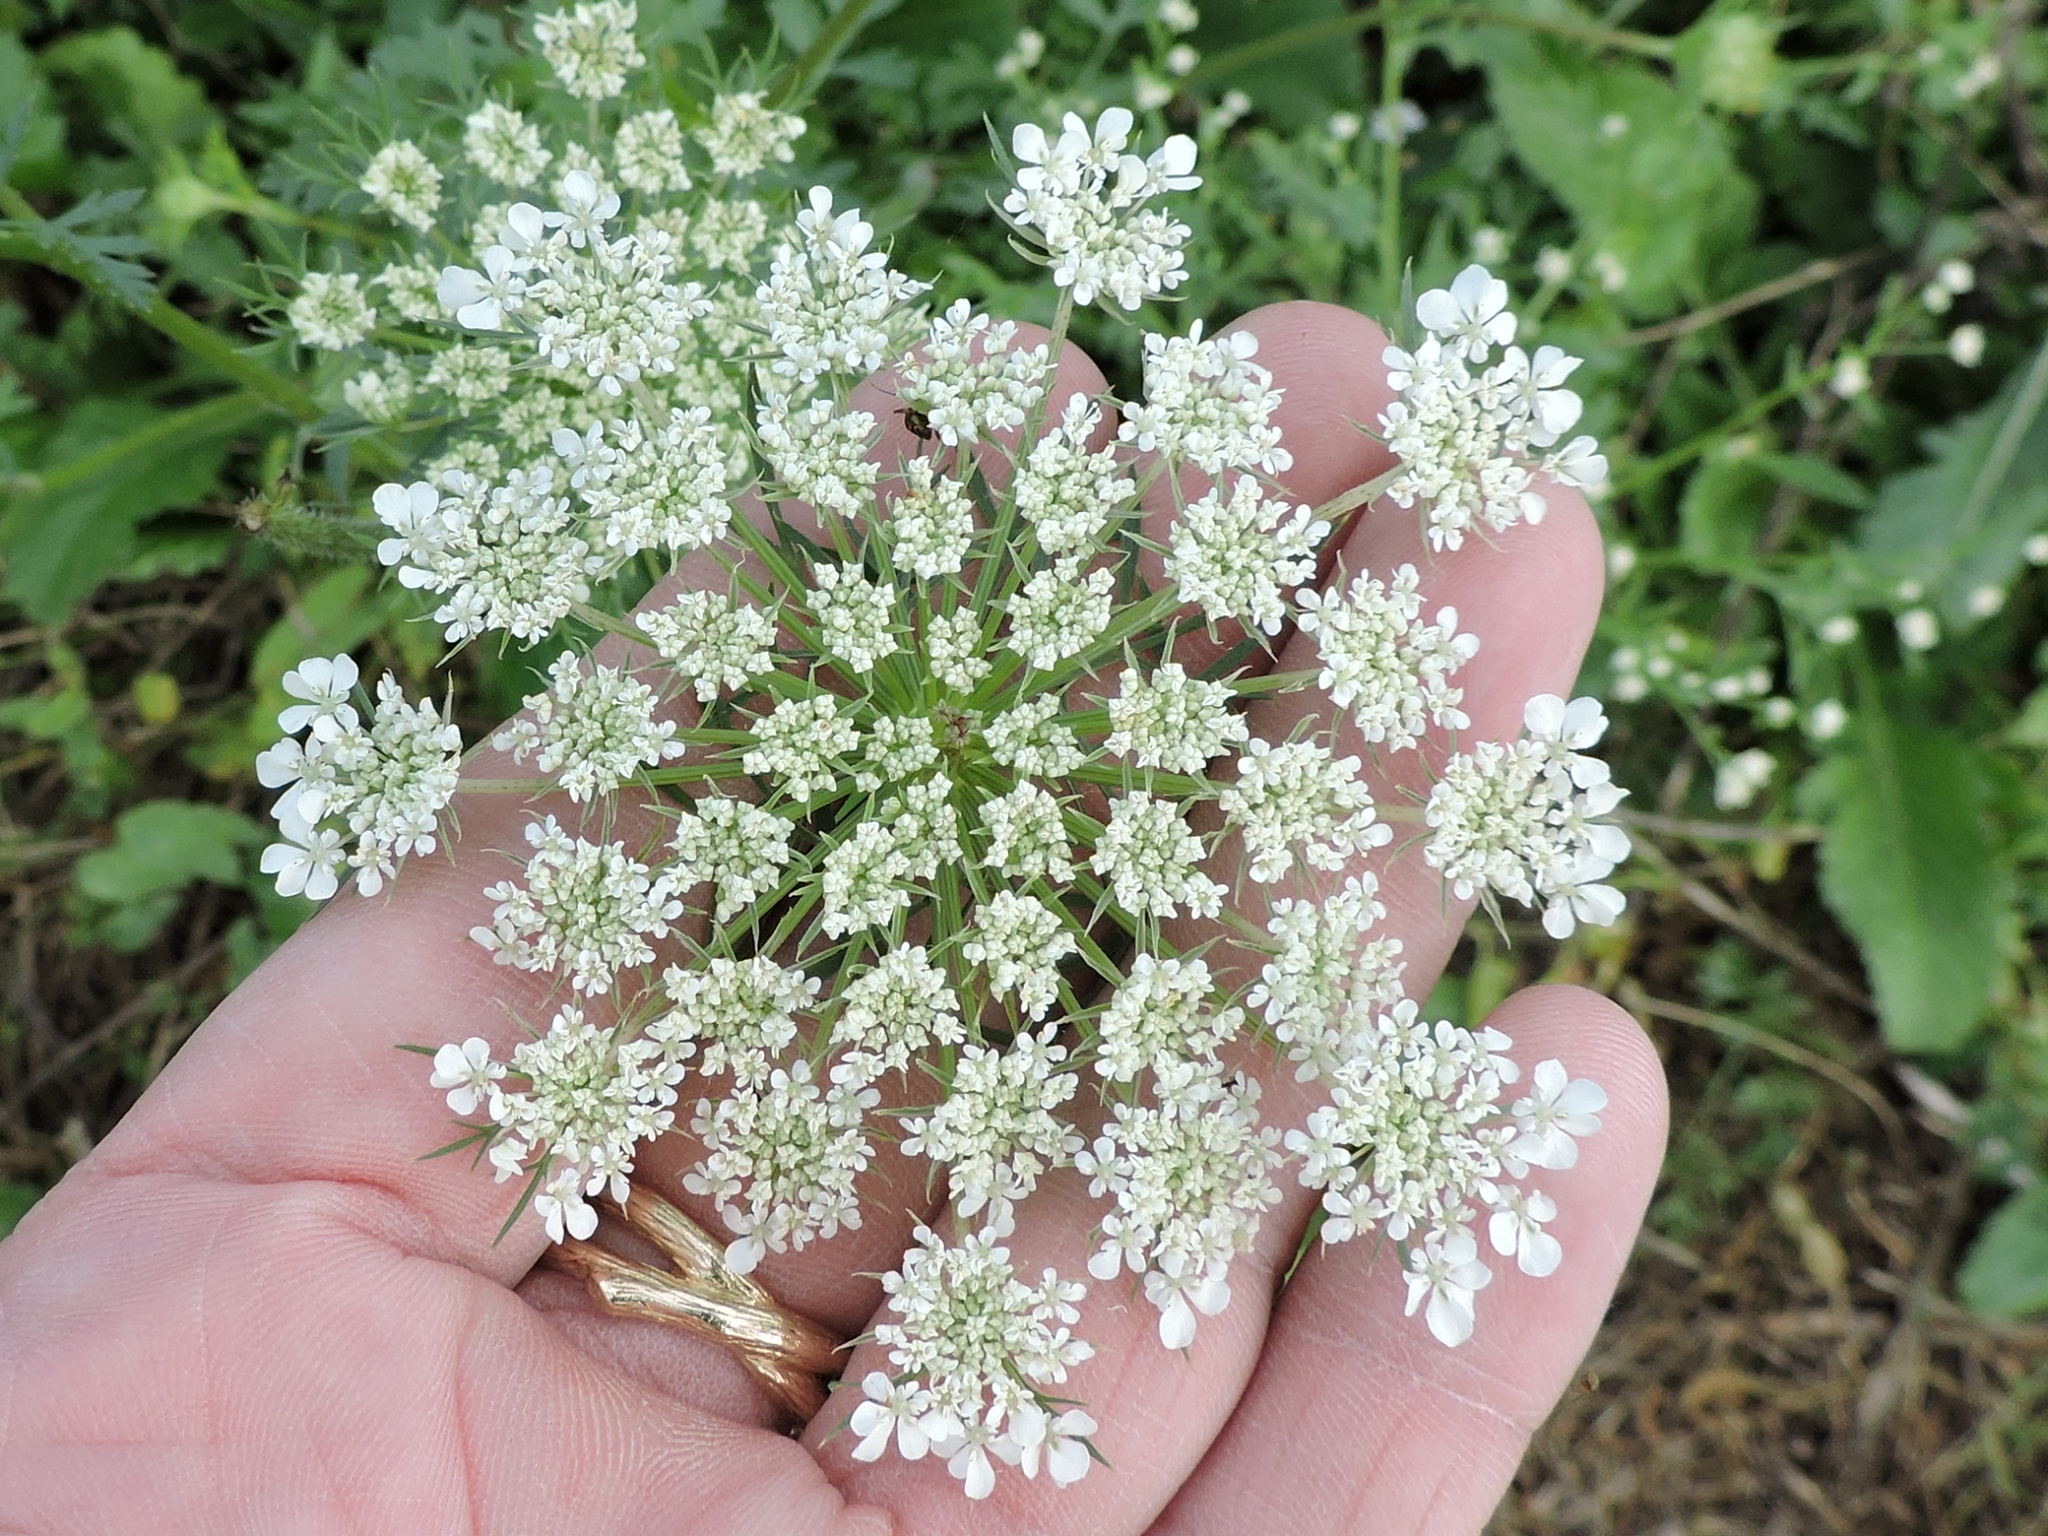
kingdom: Plantae
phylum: Tracheophyta
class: Magnoliopsida
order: Apiales
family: Apiaceae
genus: Daucus
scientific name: Daucus carota
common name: Wild carrot
